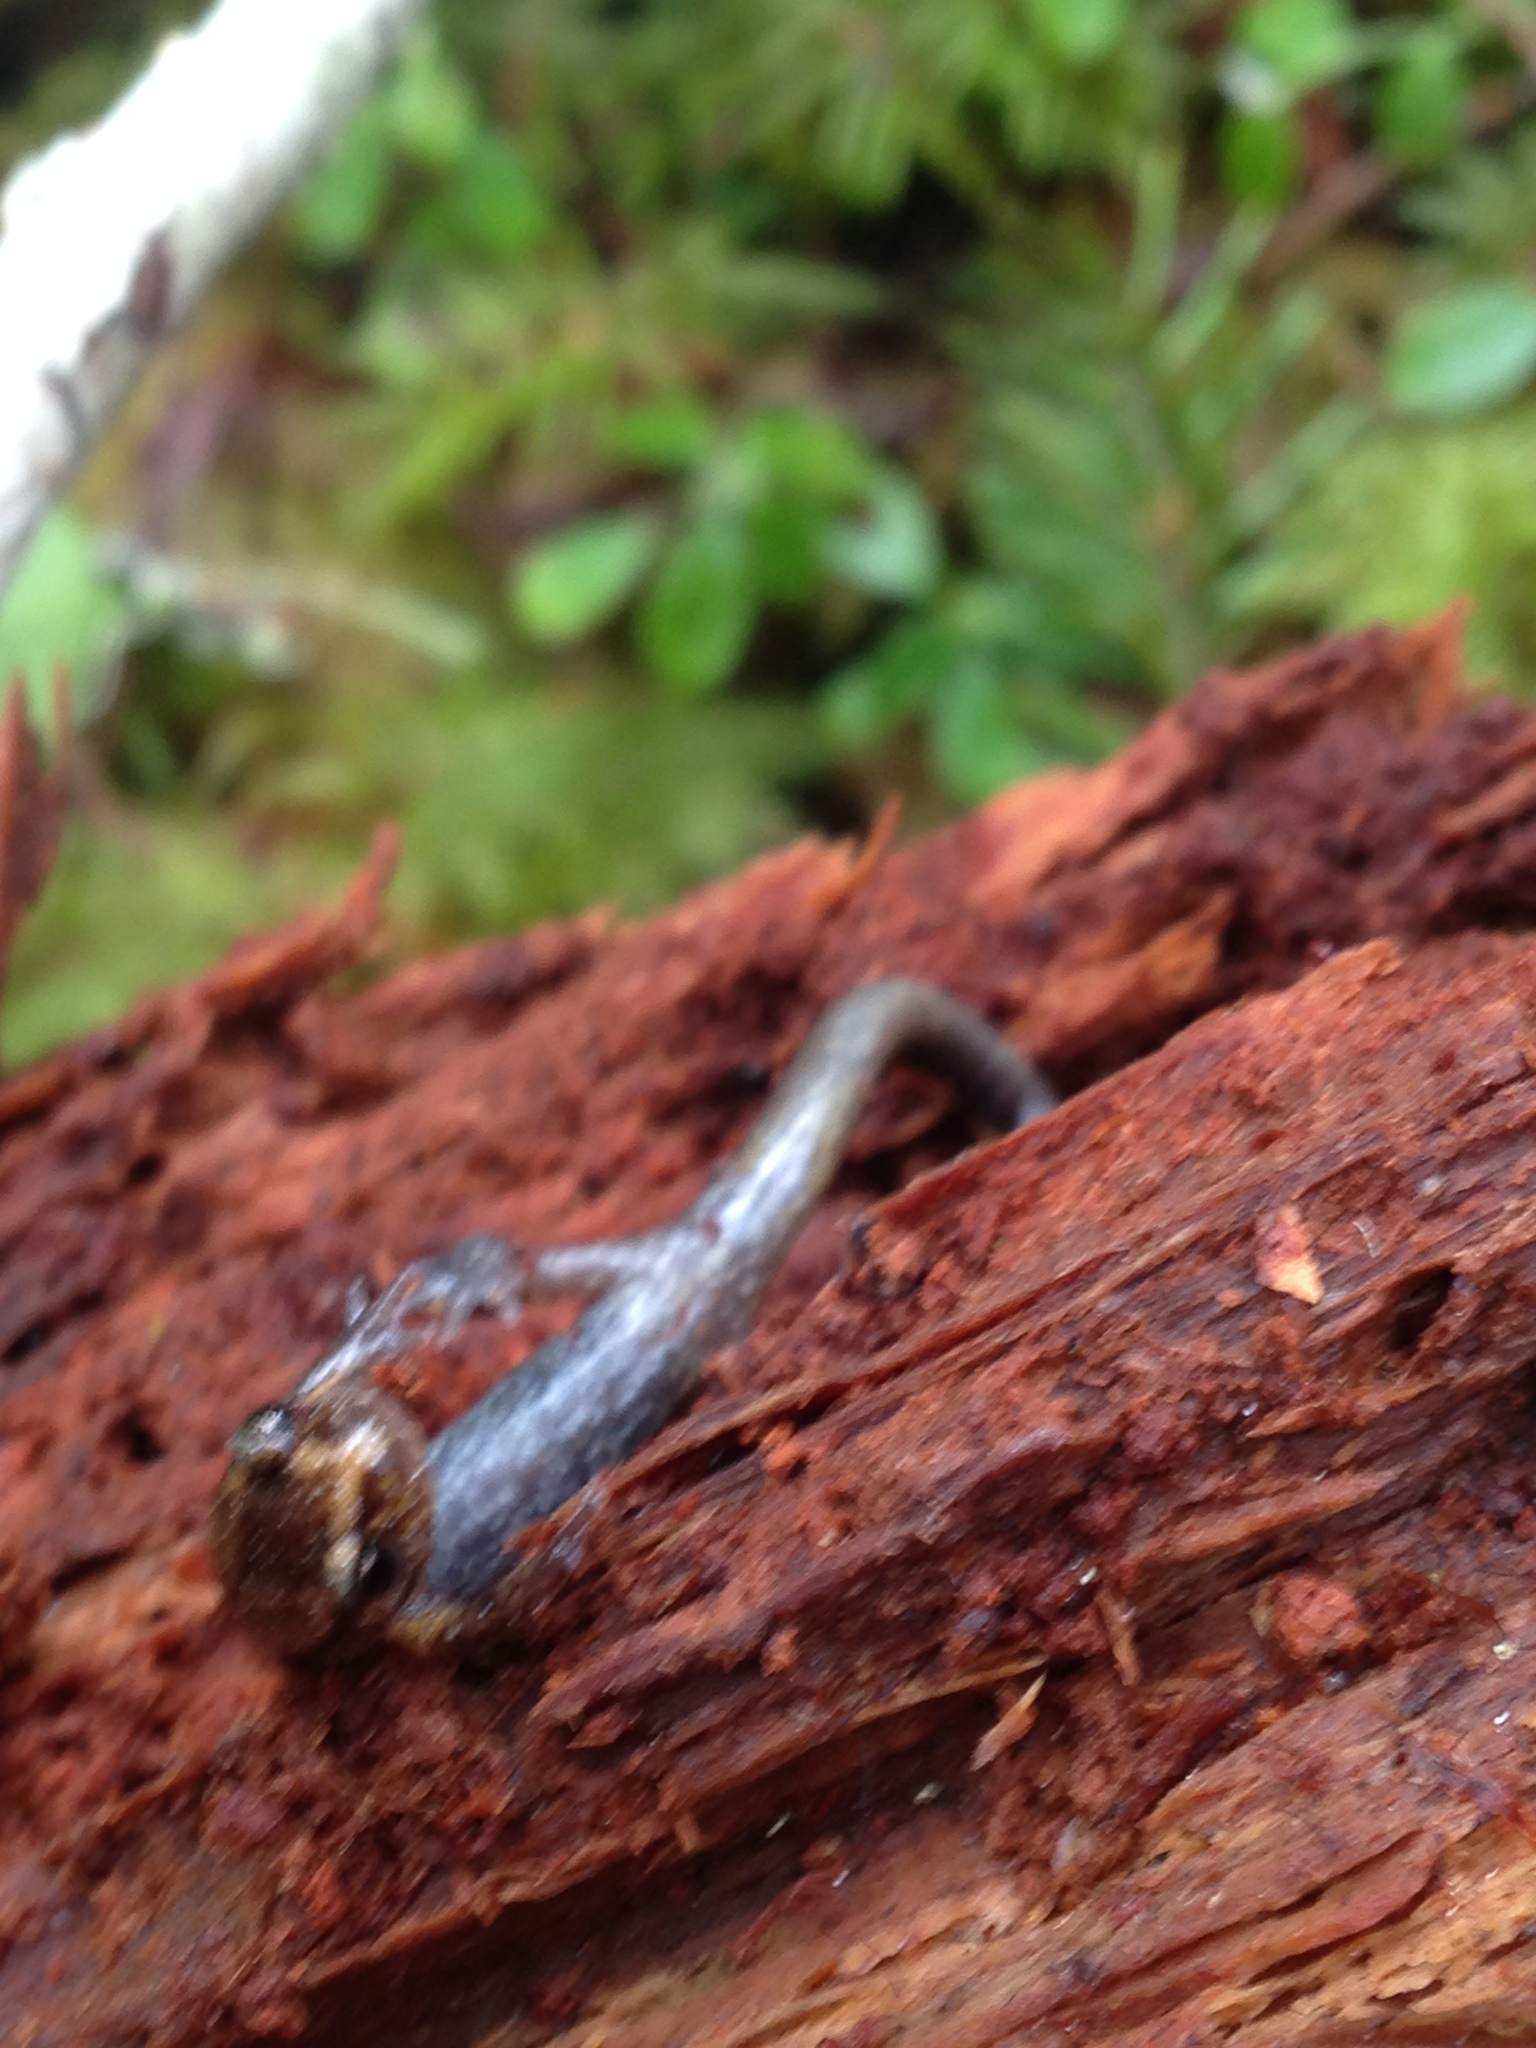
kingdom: Animalia
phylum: Chordata
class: Amphibia
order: Caudata
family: Plethodontidae
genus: Plethodon
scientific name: Plethodon vehiculum
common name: Western red-backed salamander
